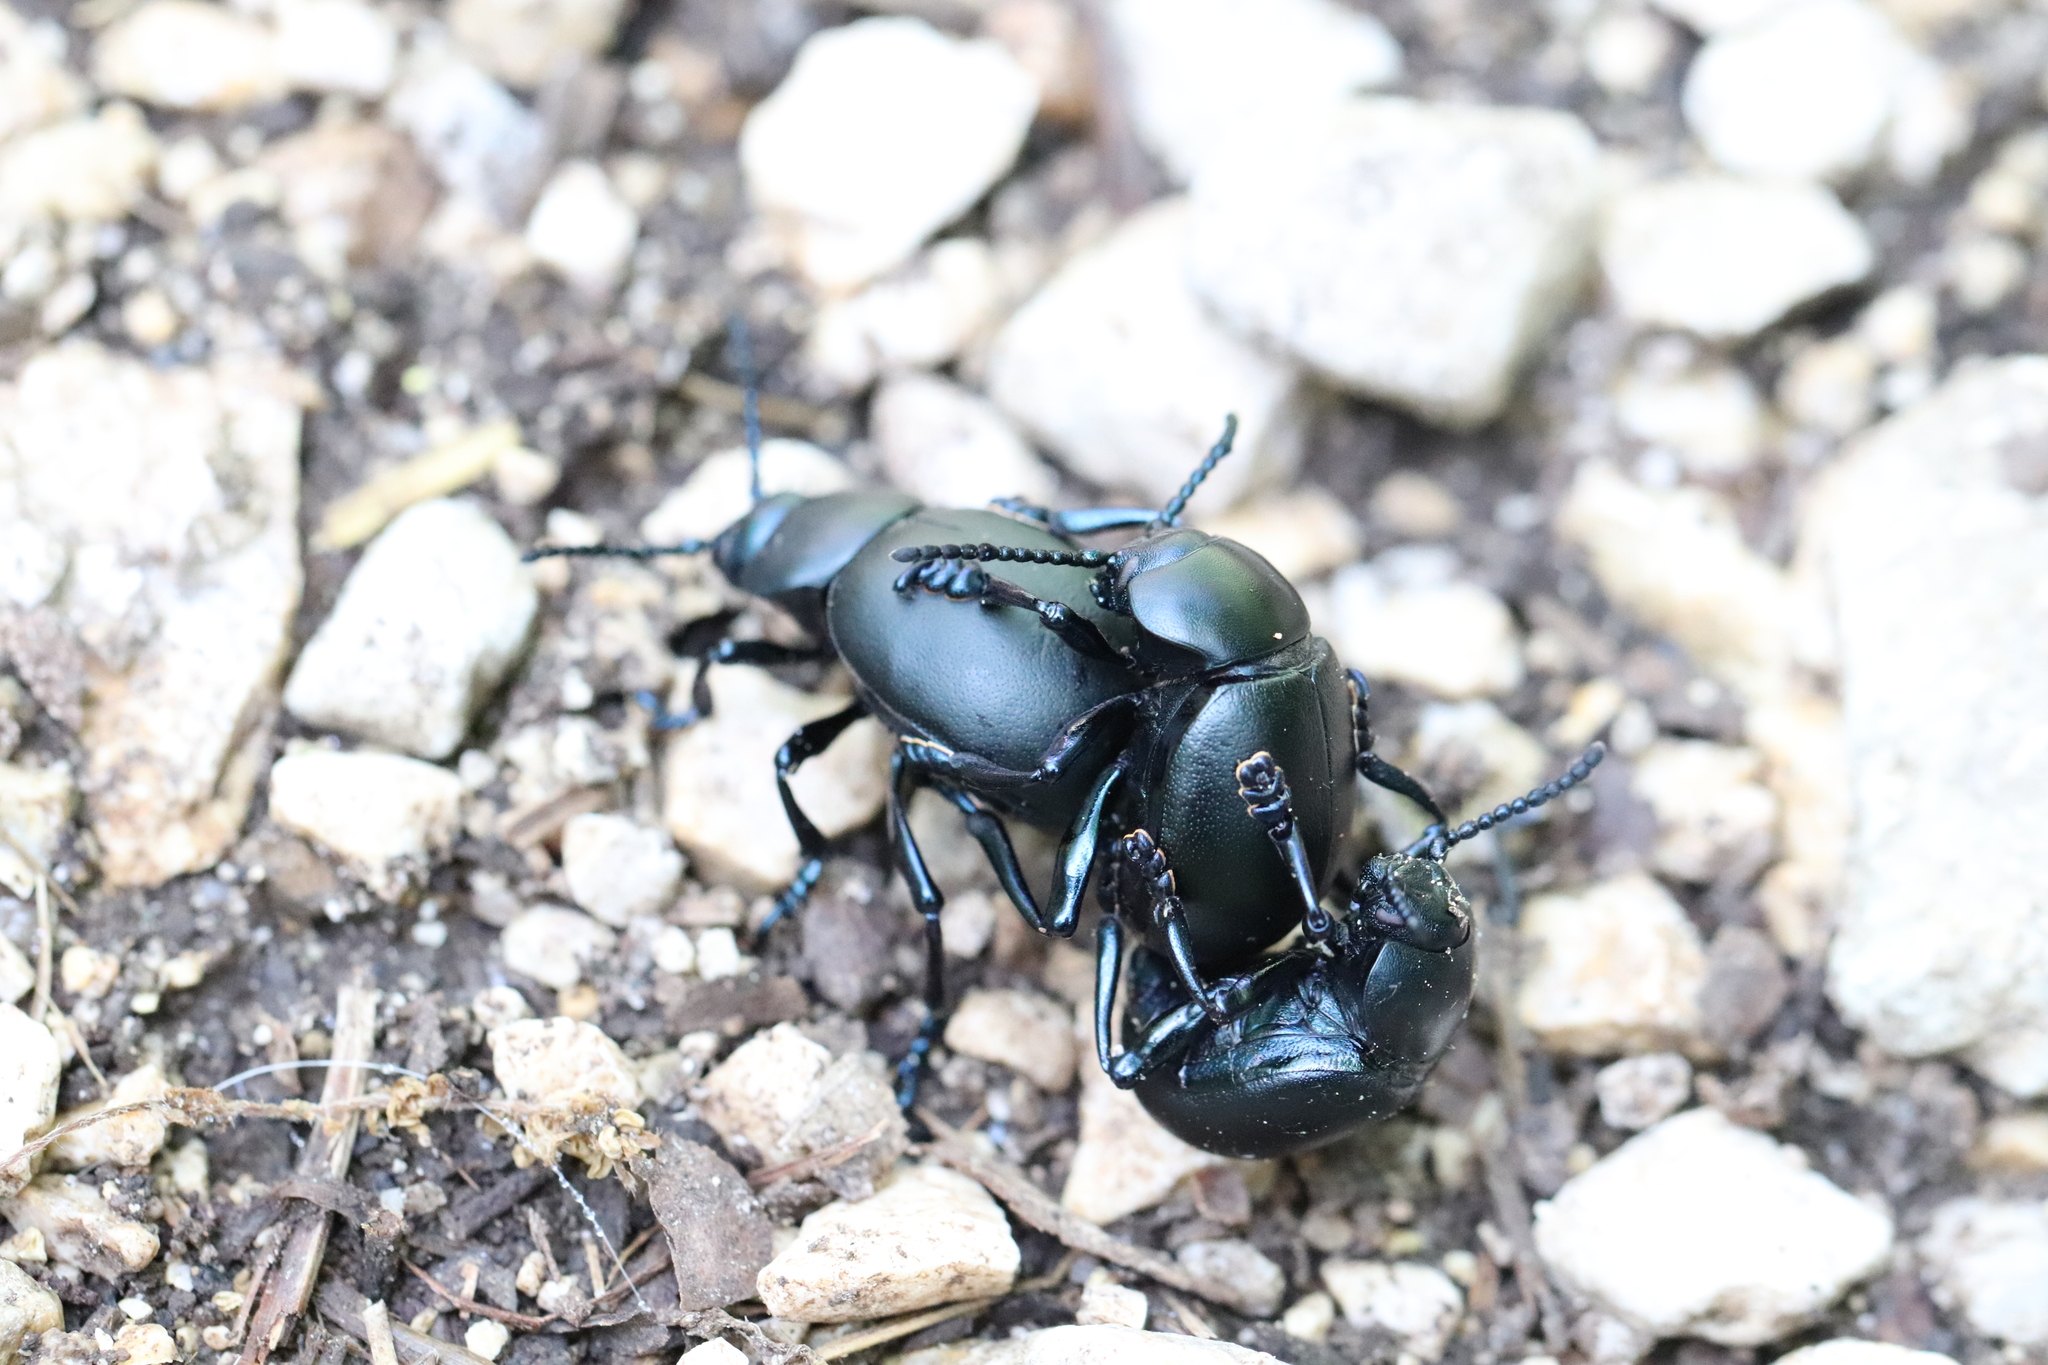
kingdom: Animalia
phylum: Arthropoda
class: Insecta
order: Coleoptera
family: Chrysomelidae
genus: Timarcha
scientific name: Timarcha tenebricosa
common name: Bloody-nosed beetle
